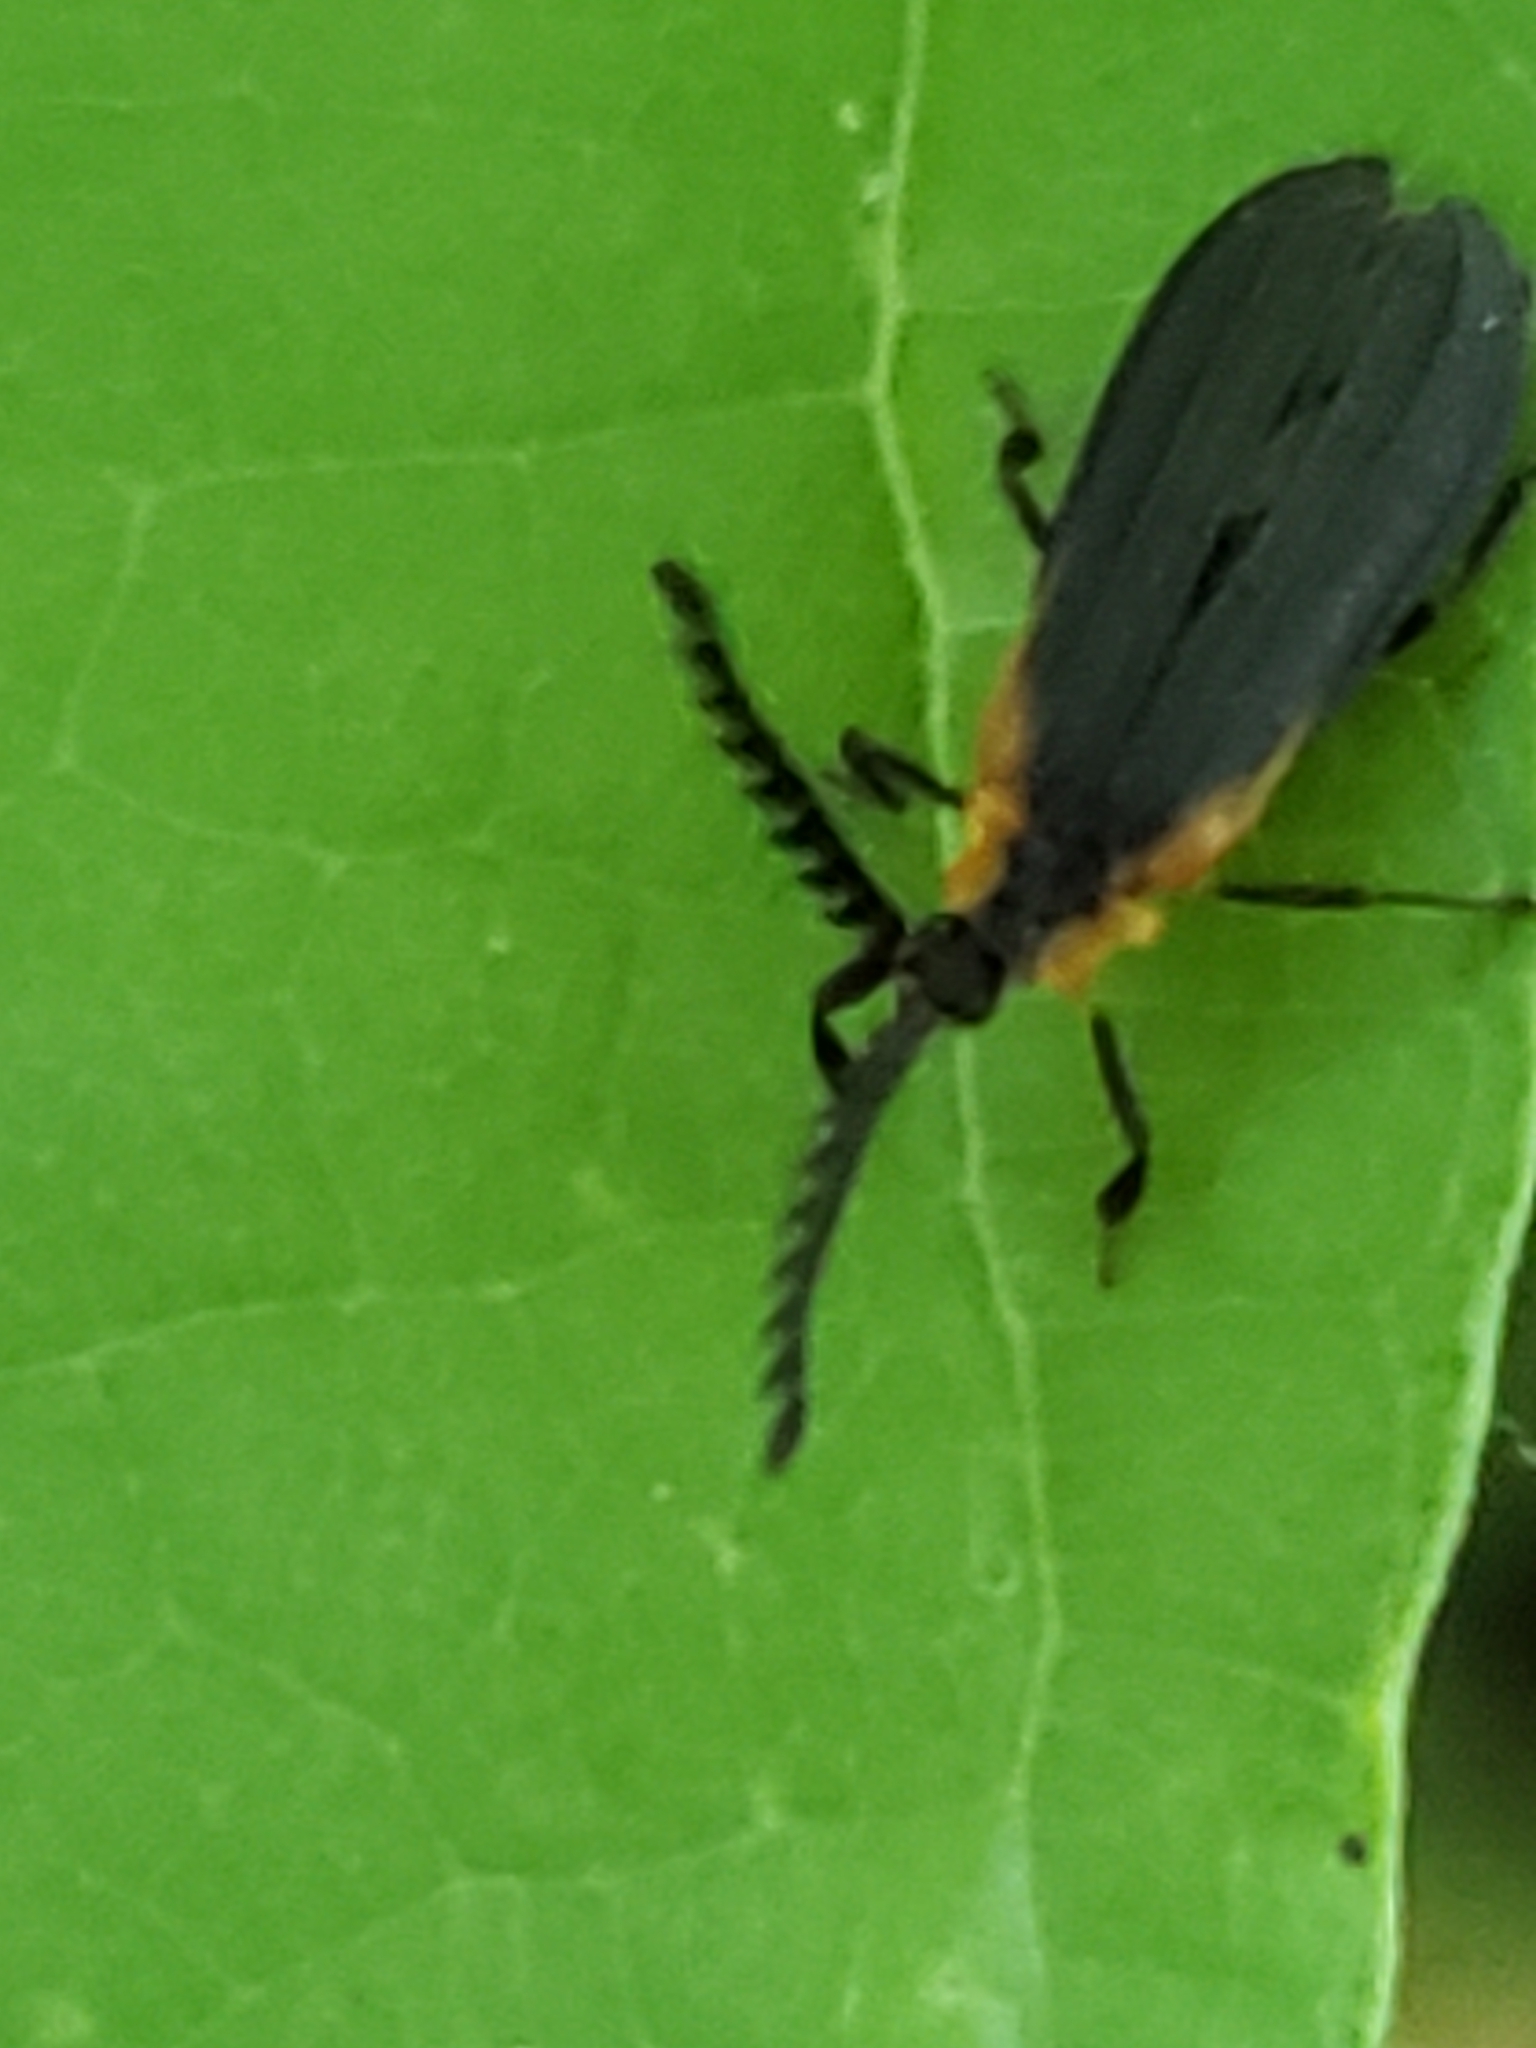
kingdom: Animalia
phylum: Arthropoda
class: Insecta
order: Coleoptera
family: Lycidae
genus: Leptoceletes
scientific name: Leptoceletes basalis
